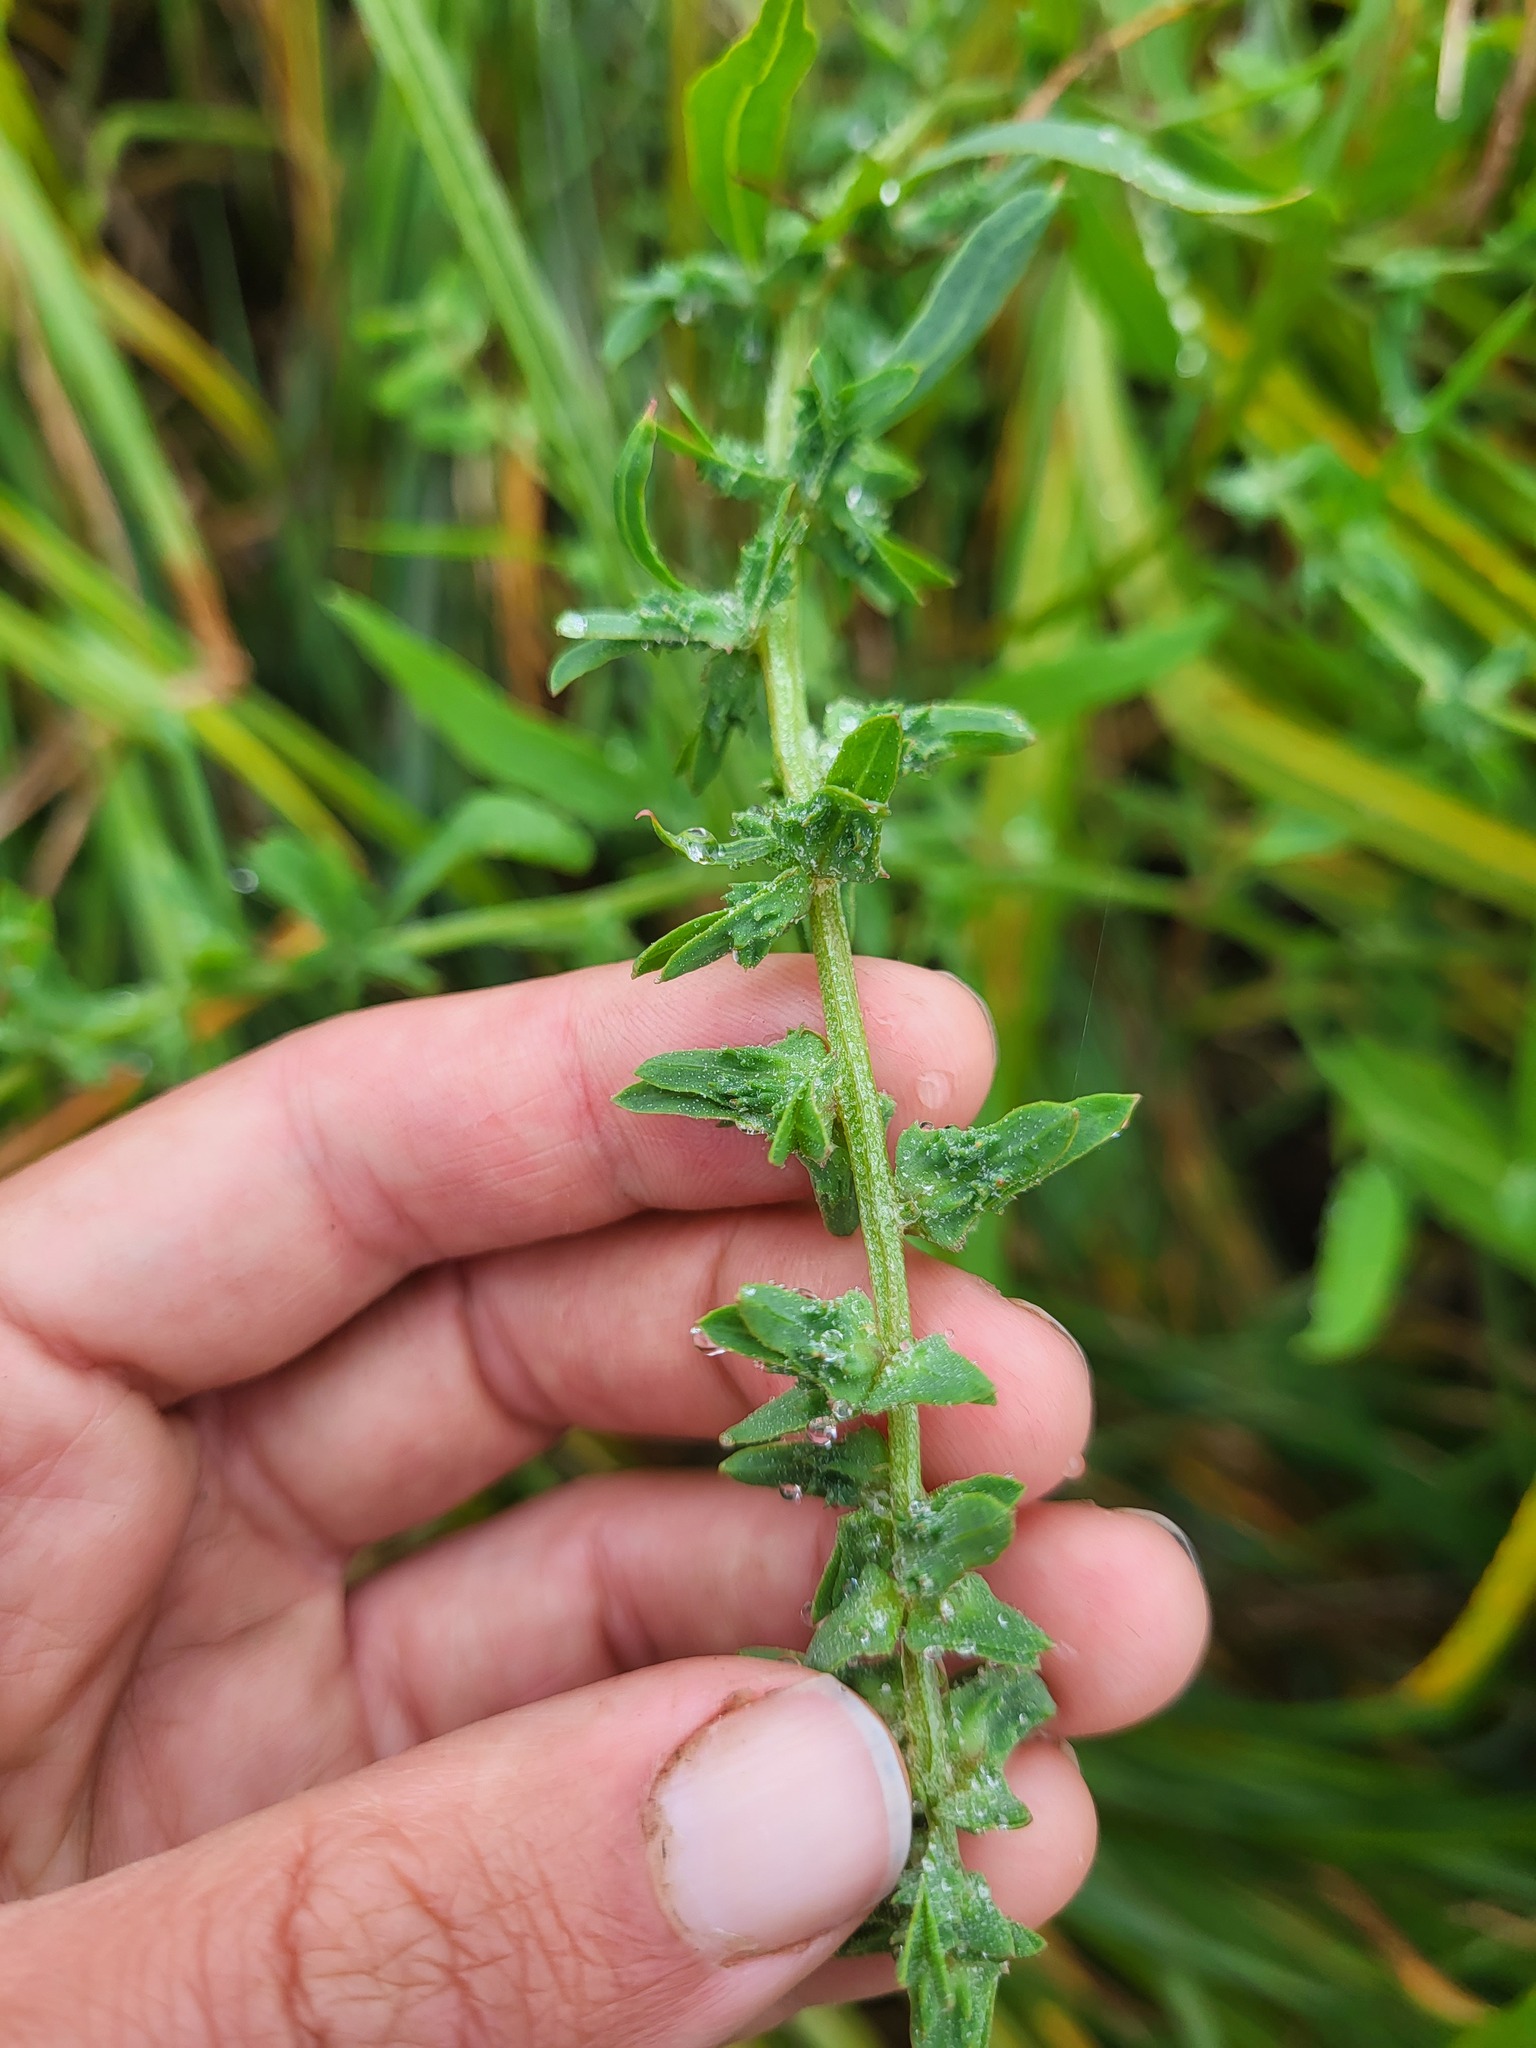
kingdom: Plantae
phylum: Tracheophyta
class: Magnoliopsida
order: Caryophyllales
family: Amaranthaceae
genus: Atriplex
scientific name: Atriplex gmelinii
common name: Gmelin's orach
